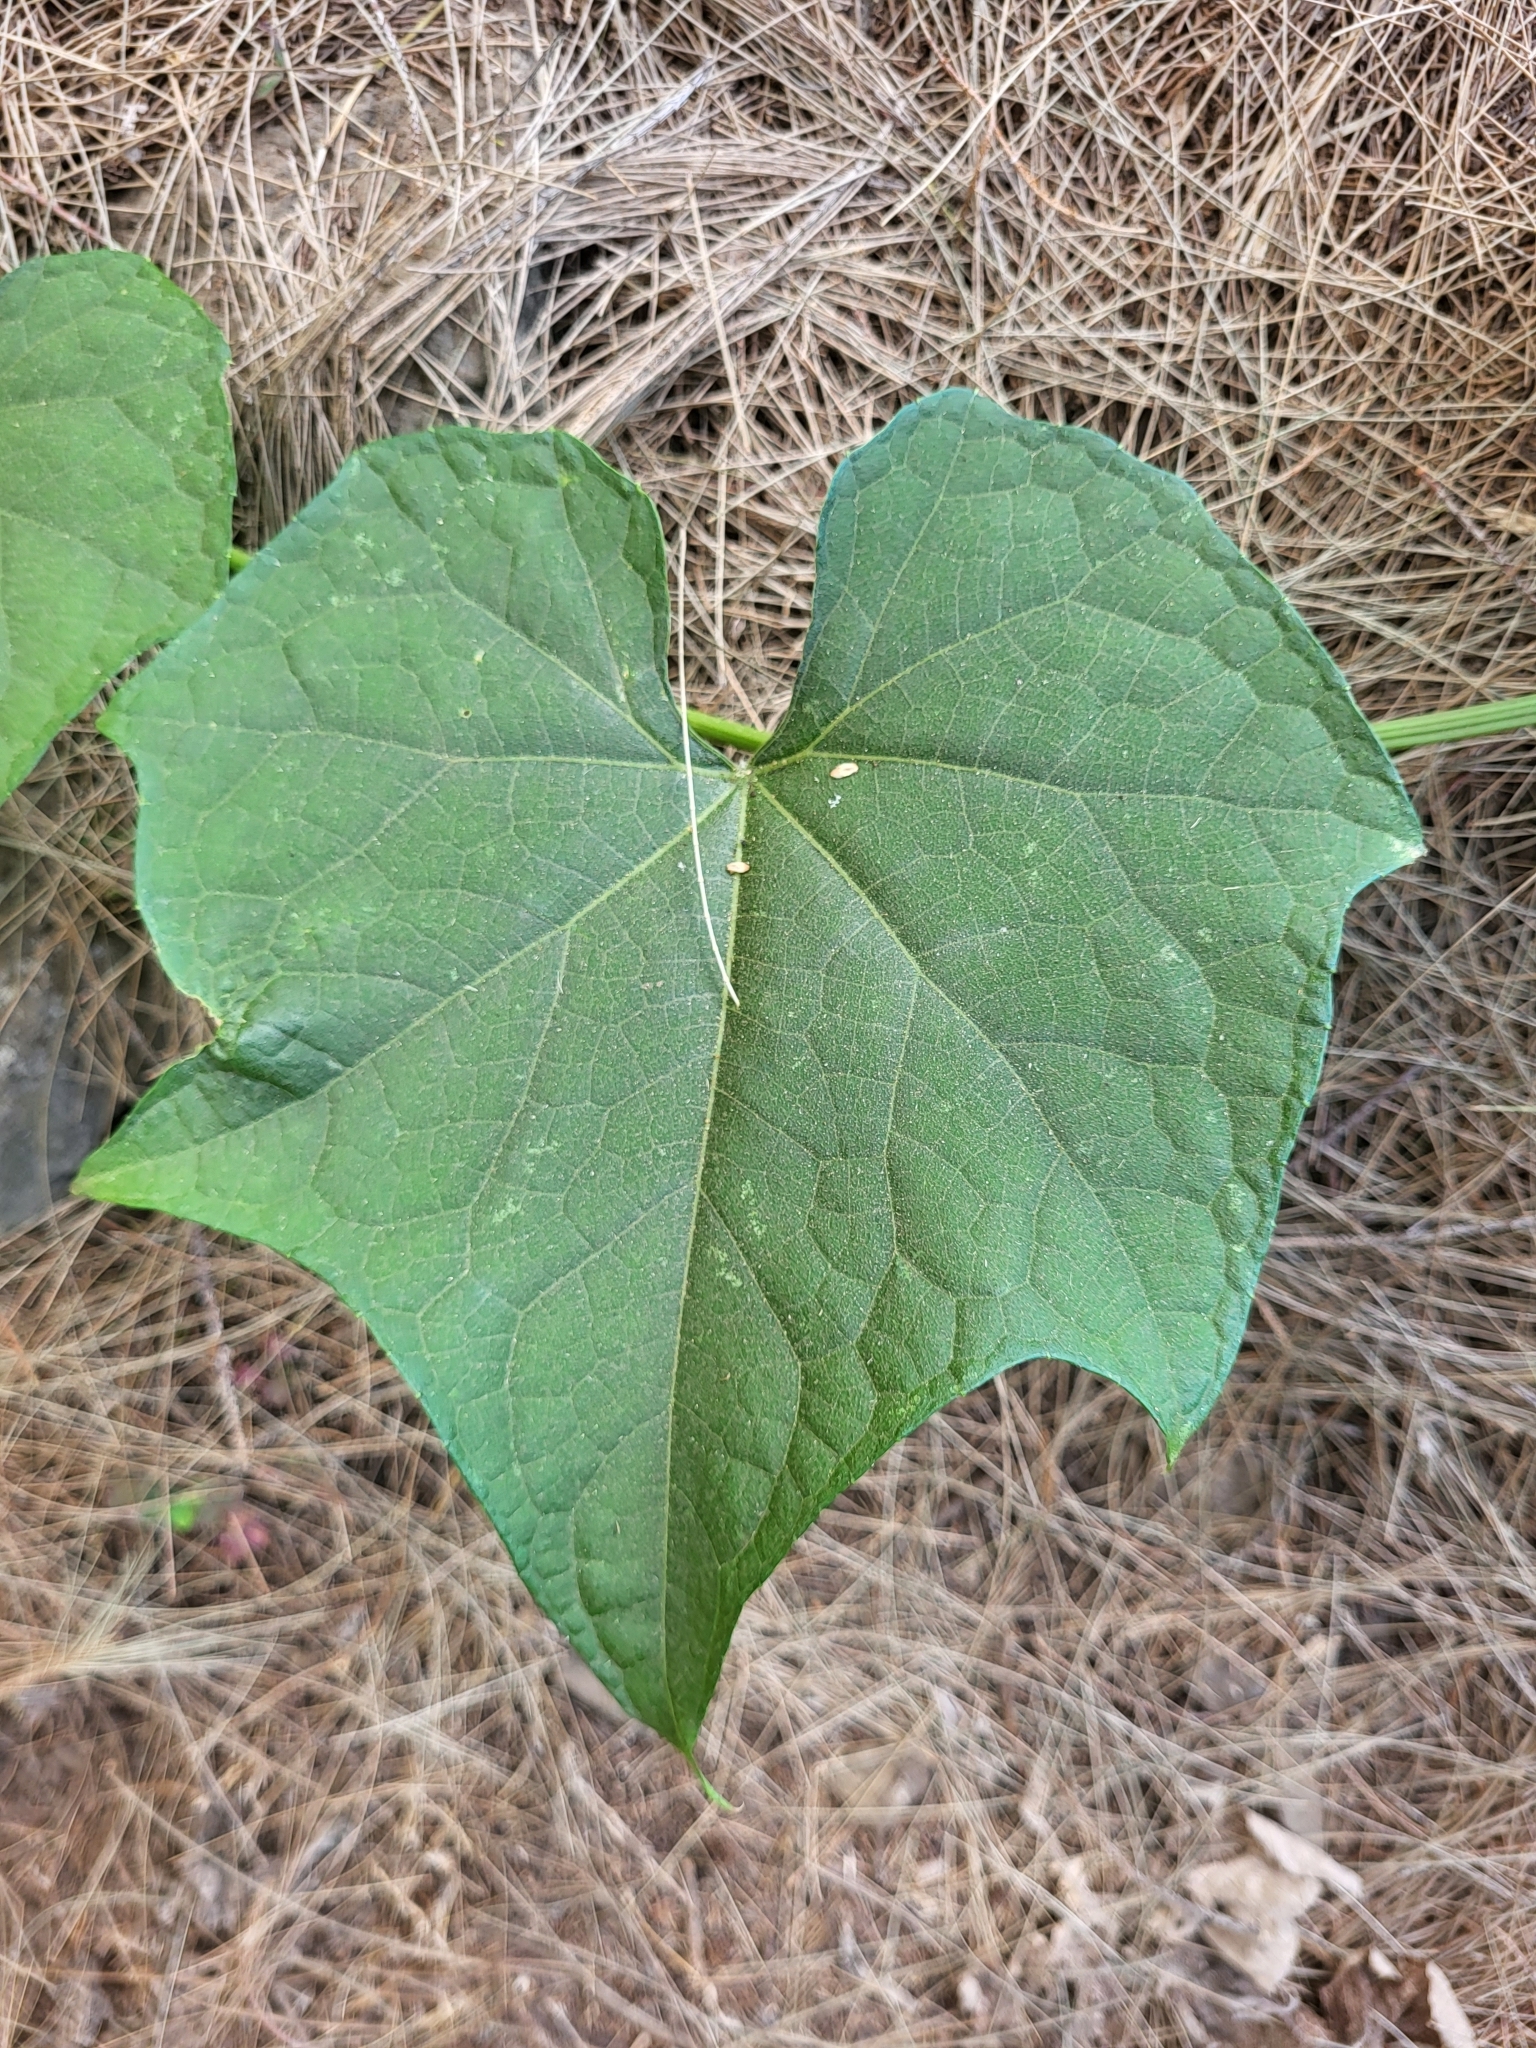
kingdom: Plantae
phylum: Tracheophyta
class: Magnoliopsida
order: Cucurbitales
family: Cucurbitaceae
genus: Sechium
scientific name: Sechium edule
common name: Chayote
